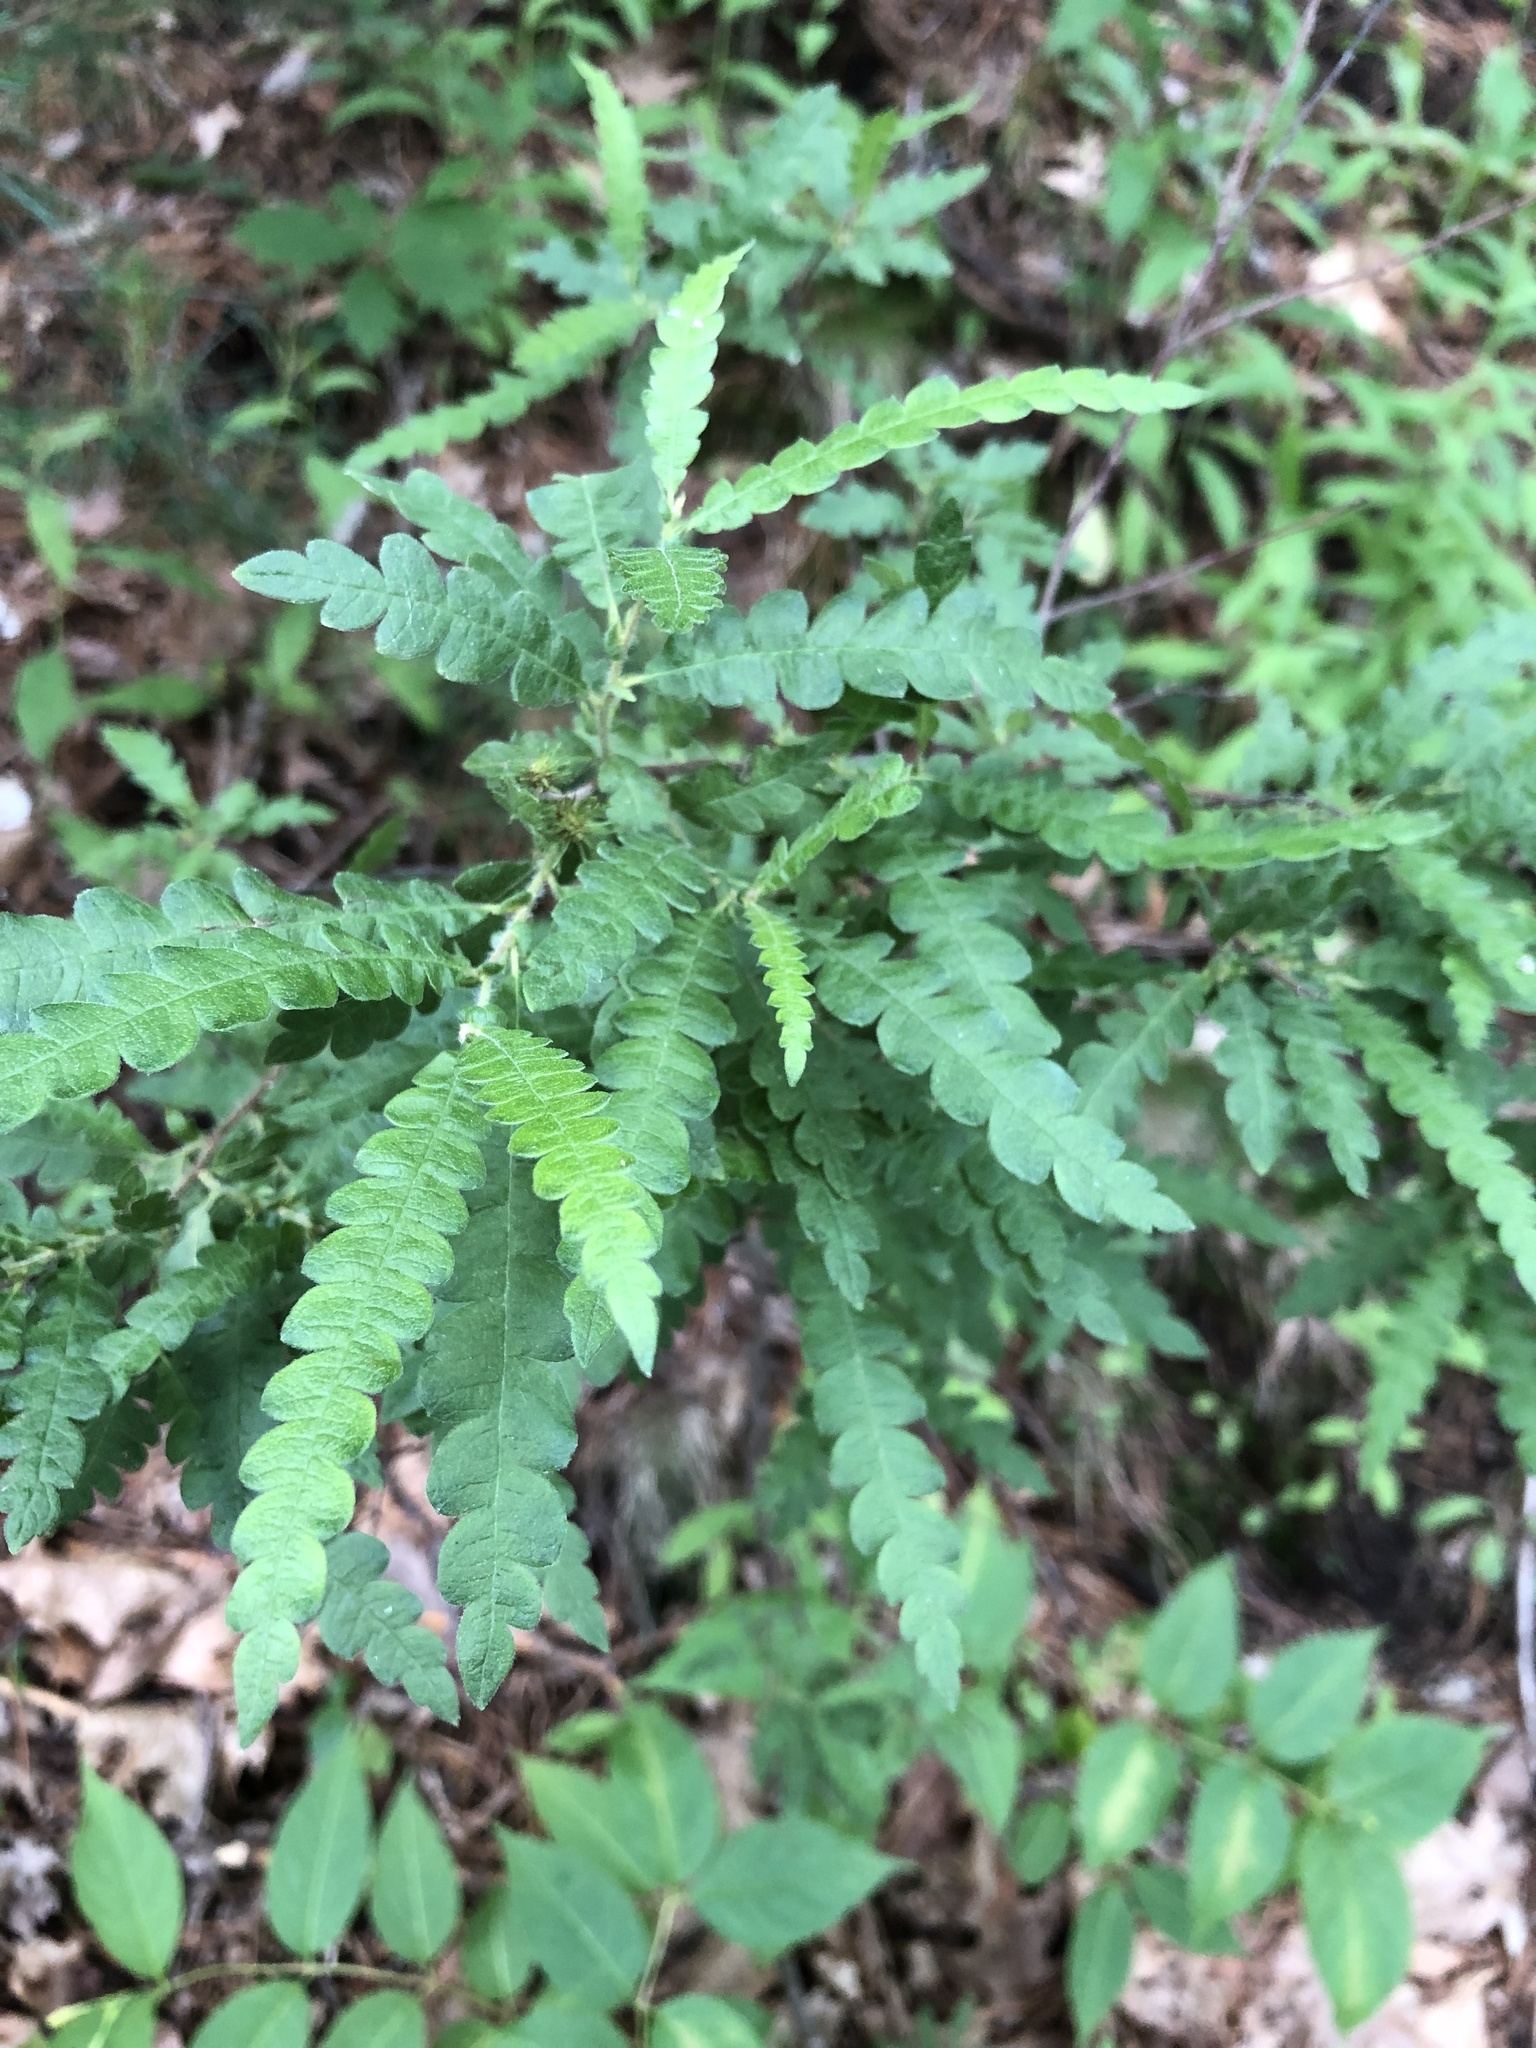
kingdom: Plantae
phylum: Tracheophyta
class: Magnoliopsida
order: Fagales
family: Myricaceae
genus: Comptonia
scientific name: Comptonia peregrina
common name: Sweet-fern
